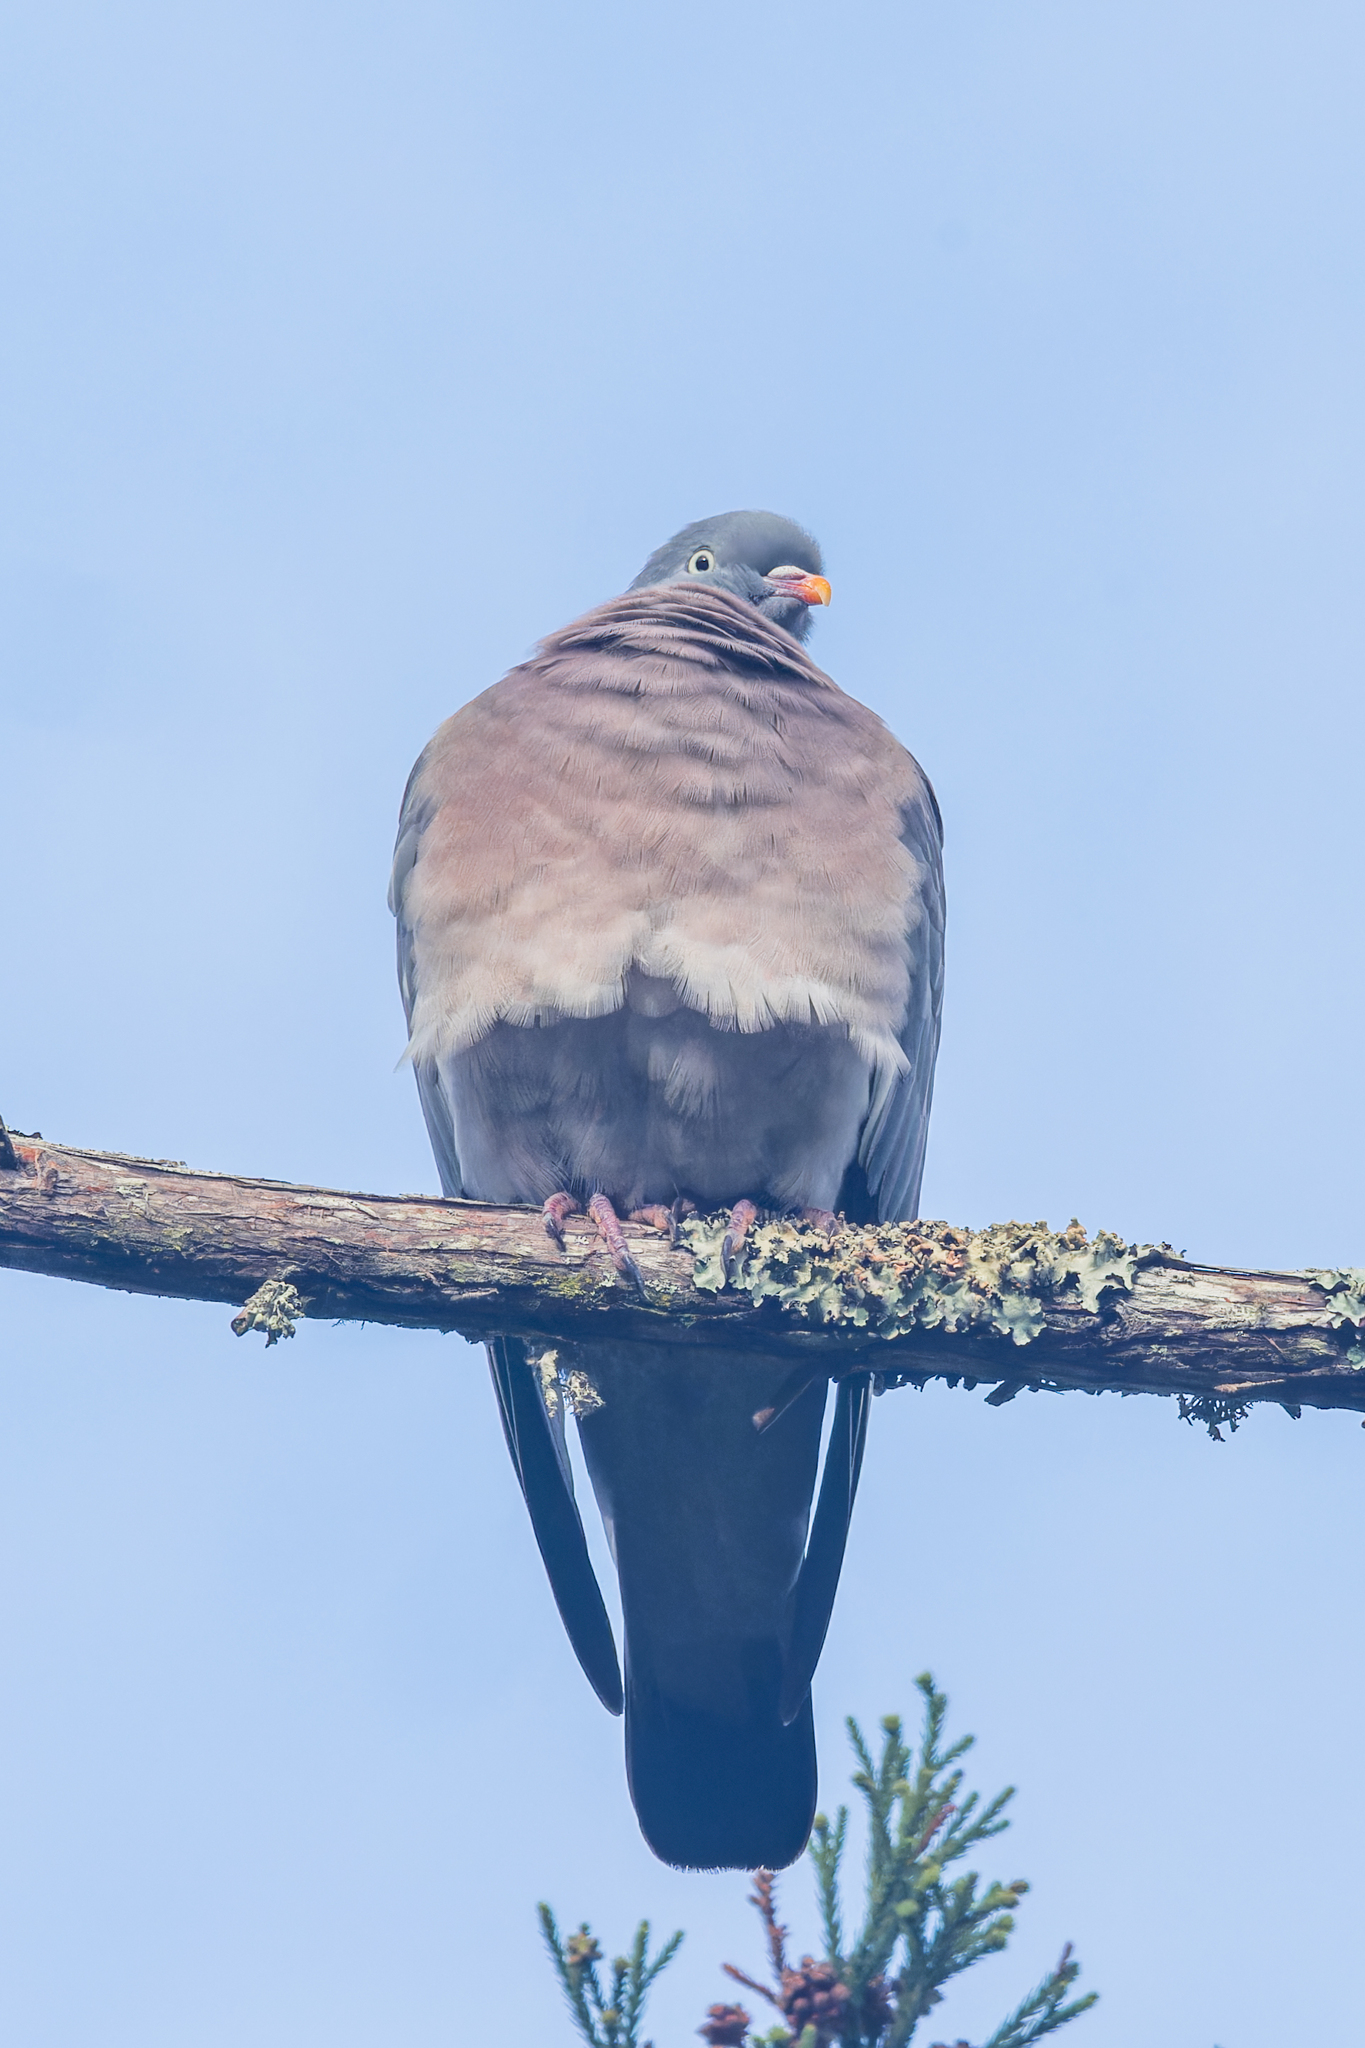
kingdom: Animalia
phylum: Chordata
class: Aves
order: Columbiformes
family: Columbidae
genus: Columba
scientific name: Columba palumbus
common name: Common wood pigeon
